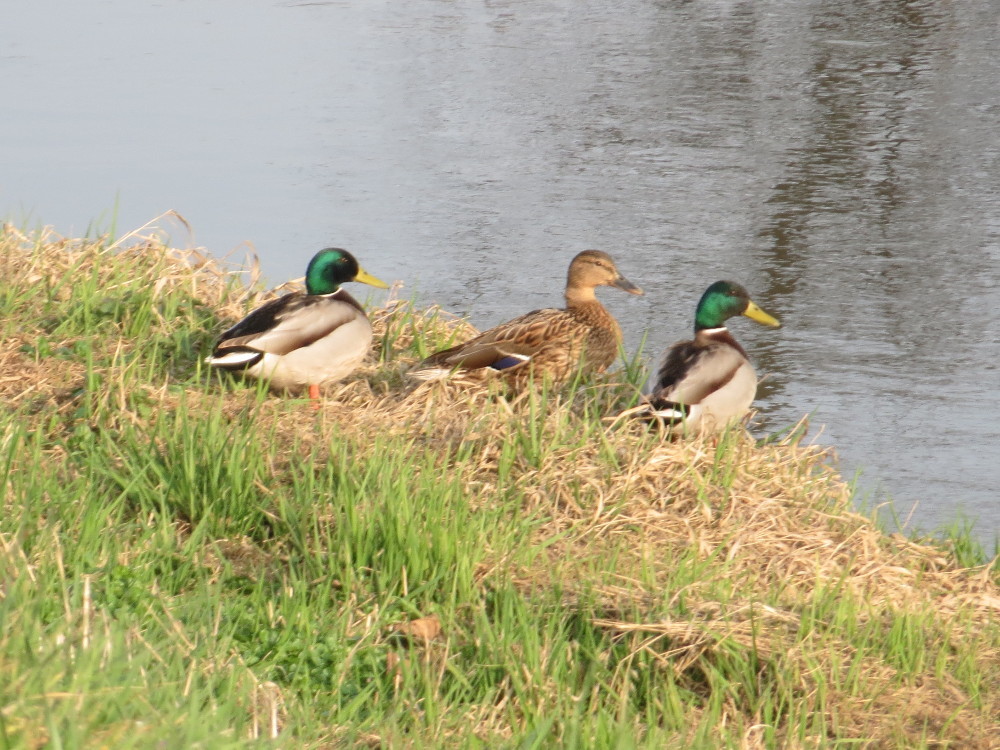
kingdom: Animalia
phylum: Chordata
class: Aves
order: Anseriformes
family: Anatidae
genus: Anas
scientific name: Anas platyrhynchos
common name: Mallard
